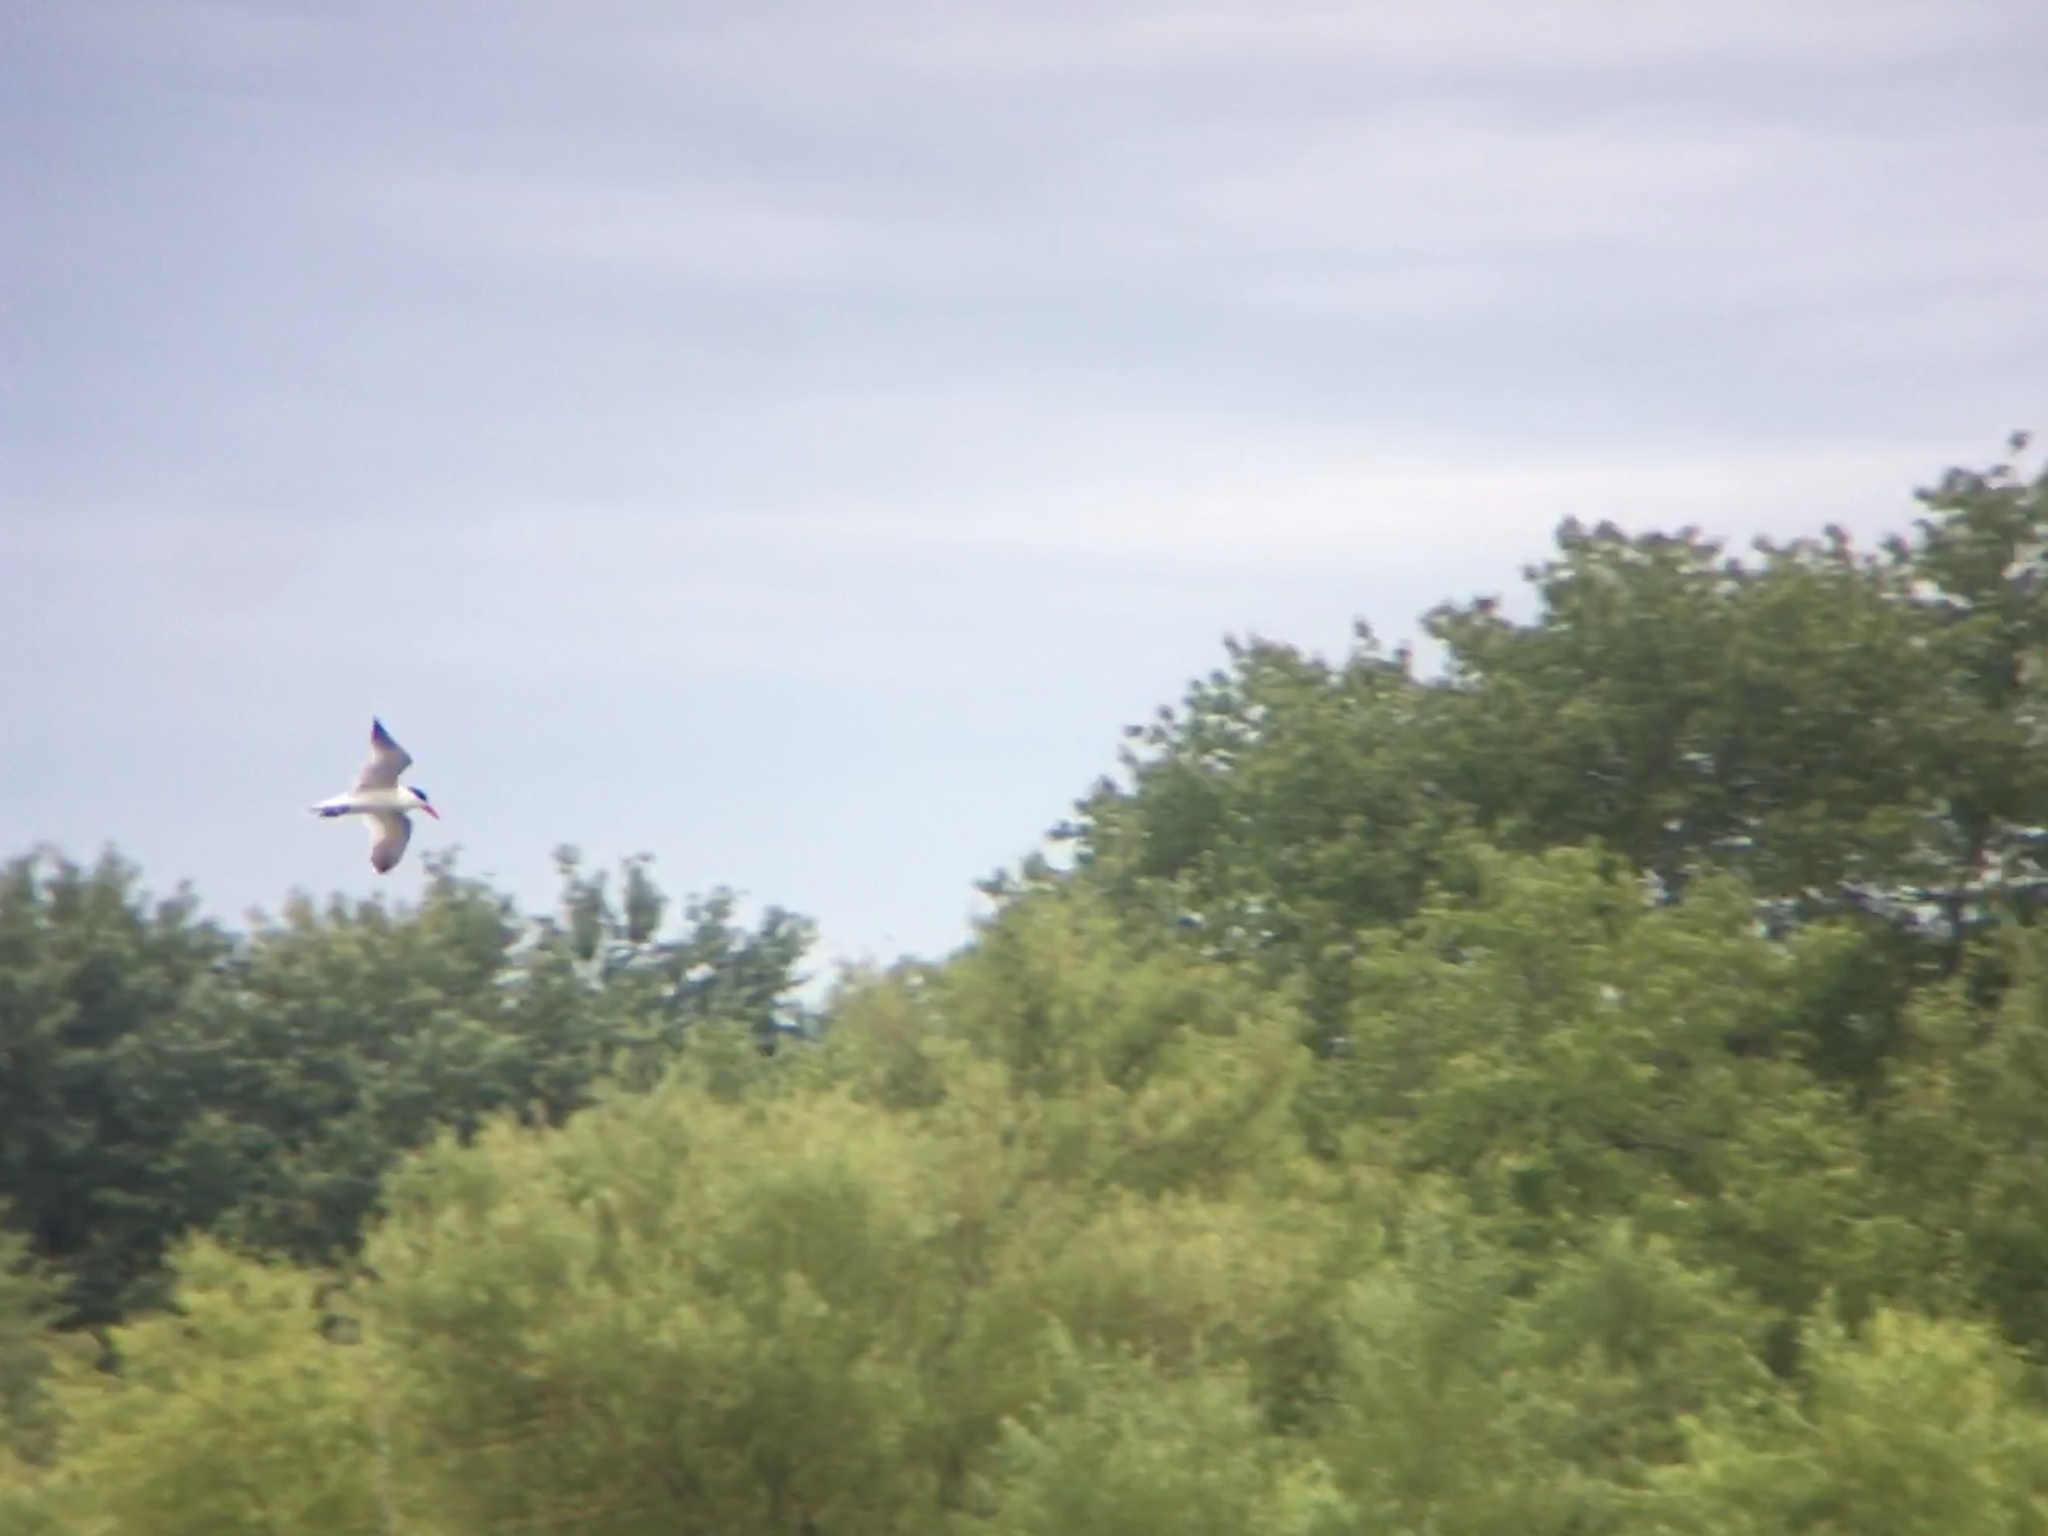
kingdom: Animalia
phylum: Chordata
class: Aves
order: Charadriiformes
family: Laridae
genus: Hydroprogne
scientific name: Hydroprogne caspia
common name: Caspian tern
